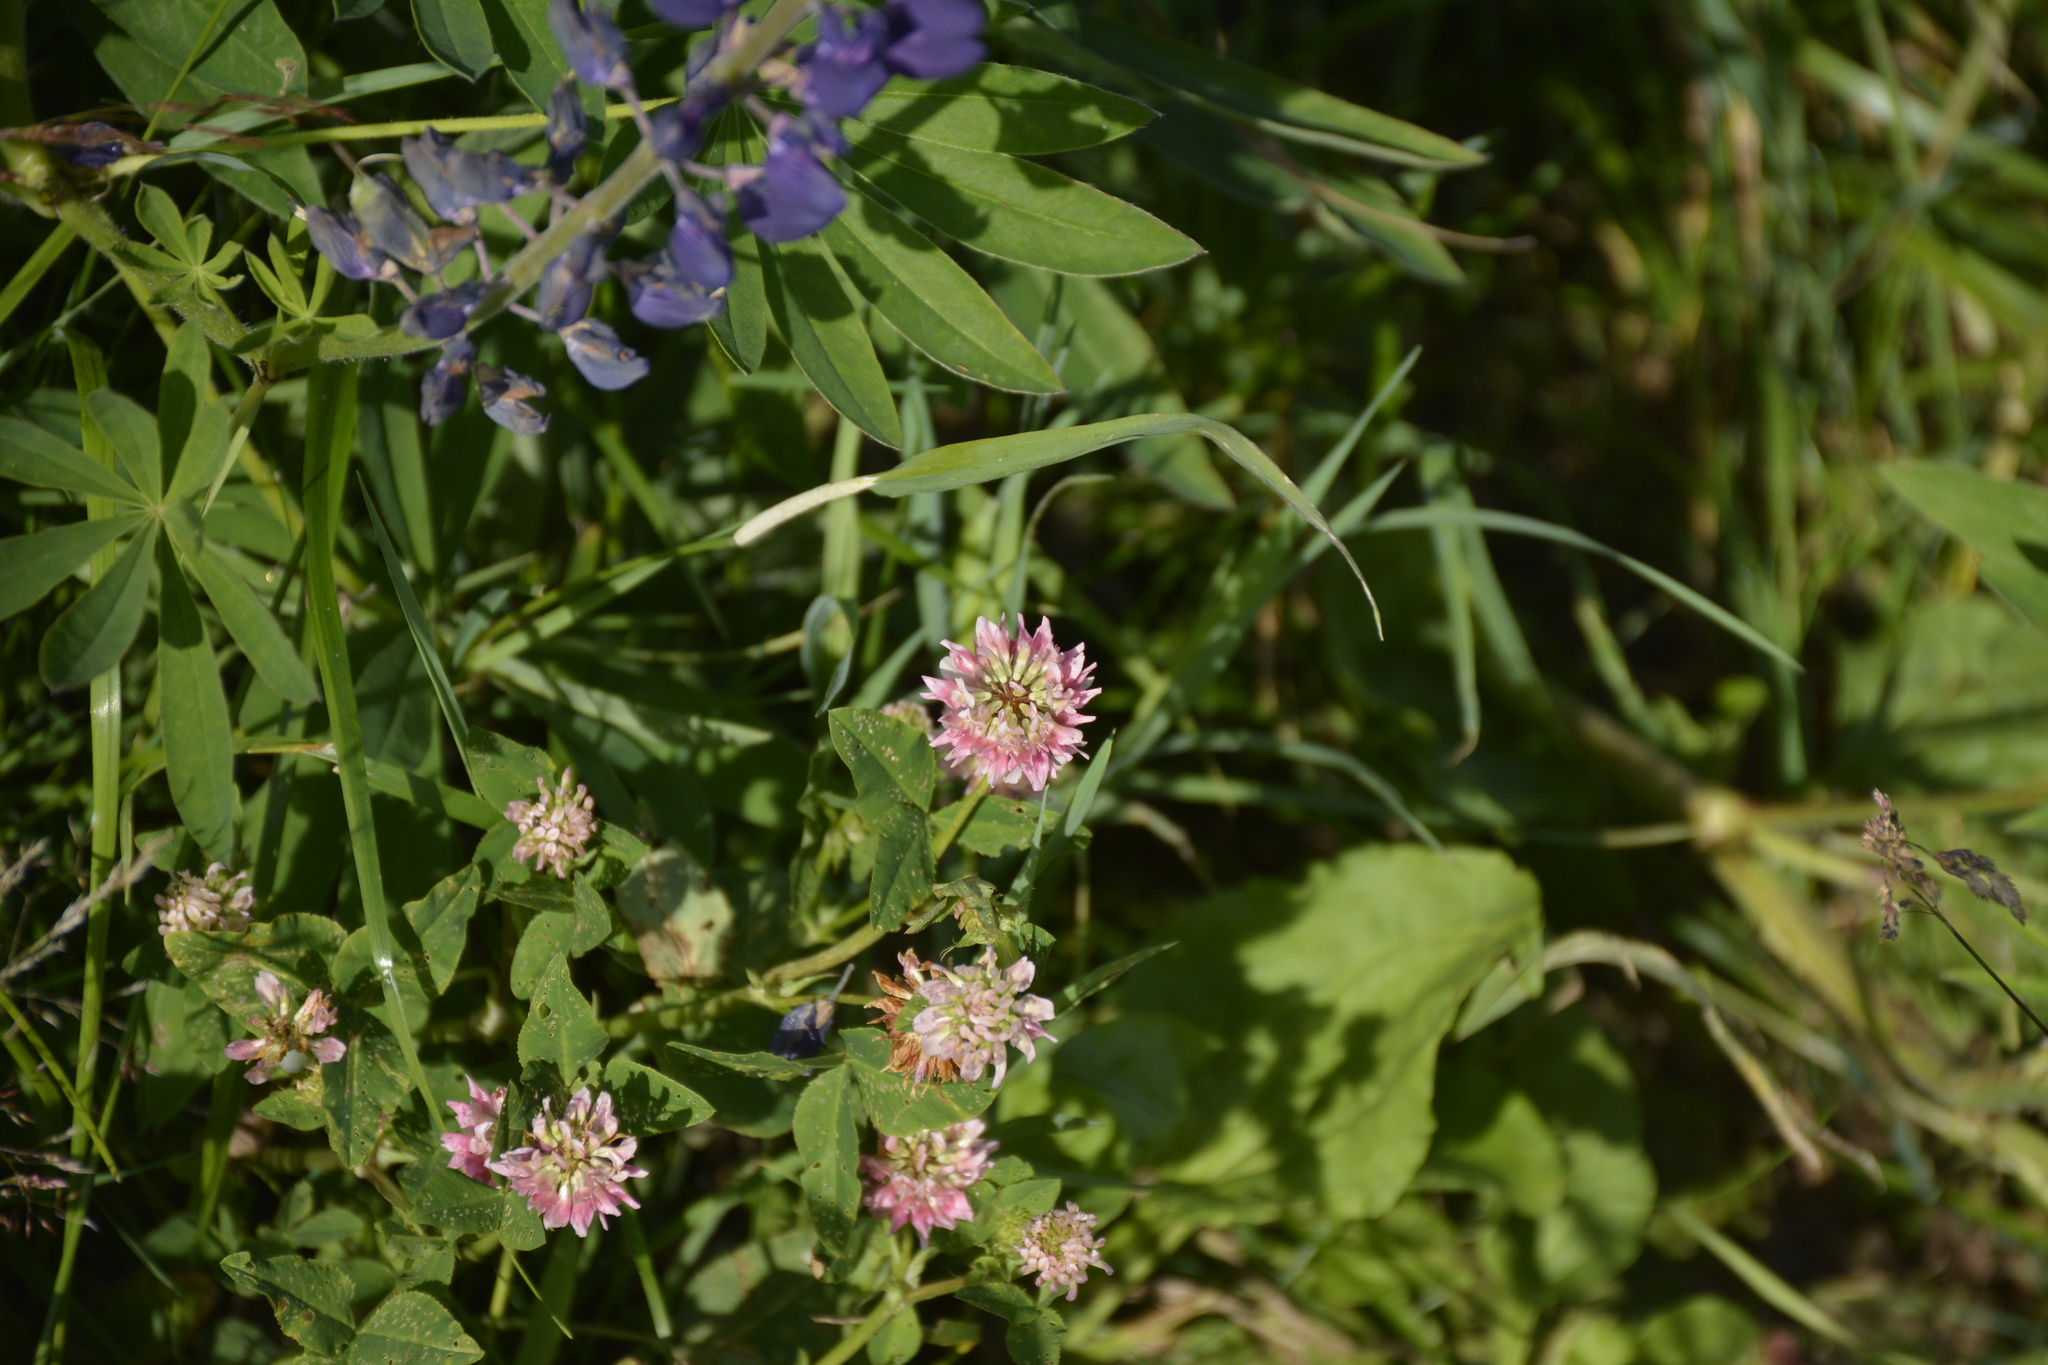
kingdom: Plantae
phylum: Tracheophyta
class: Magnoliopsida
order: Fabales
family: Fabaceae
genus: Trifolium
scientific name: Trifolium hybridum
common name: Alsike clover
